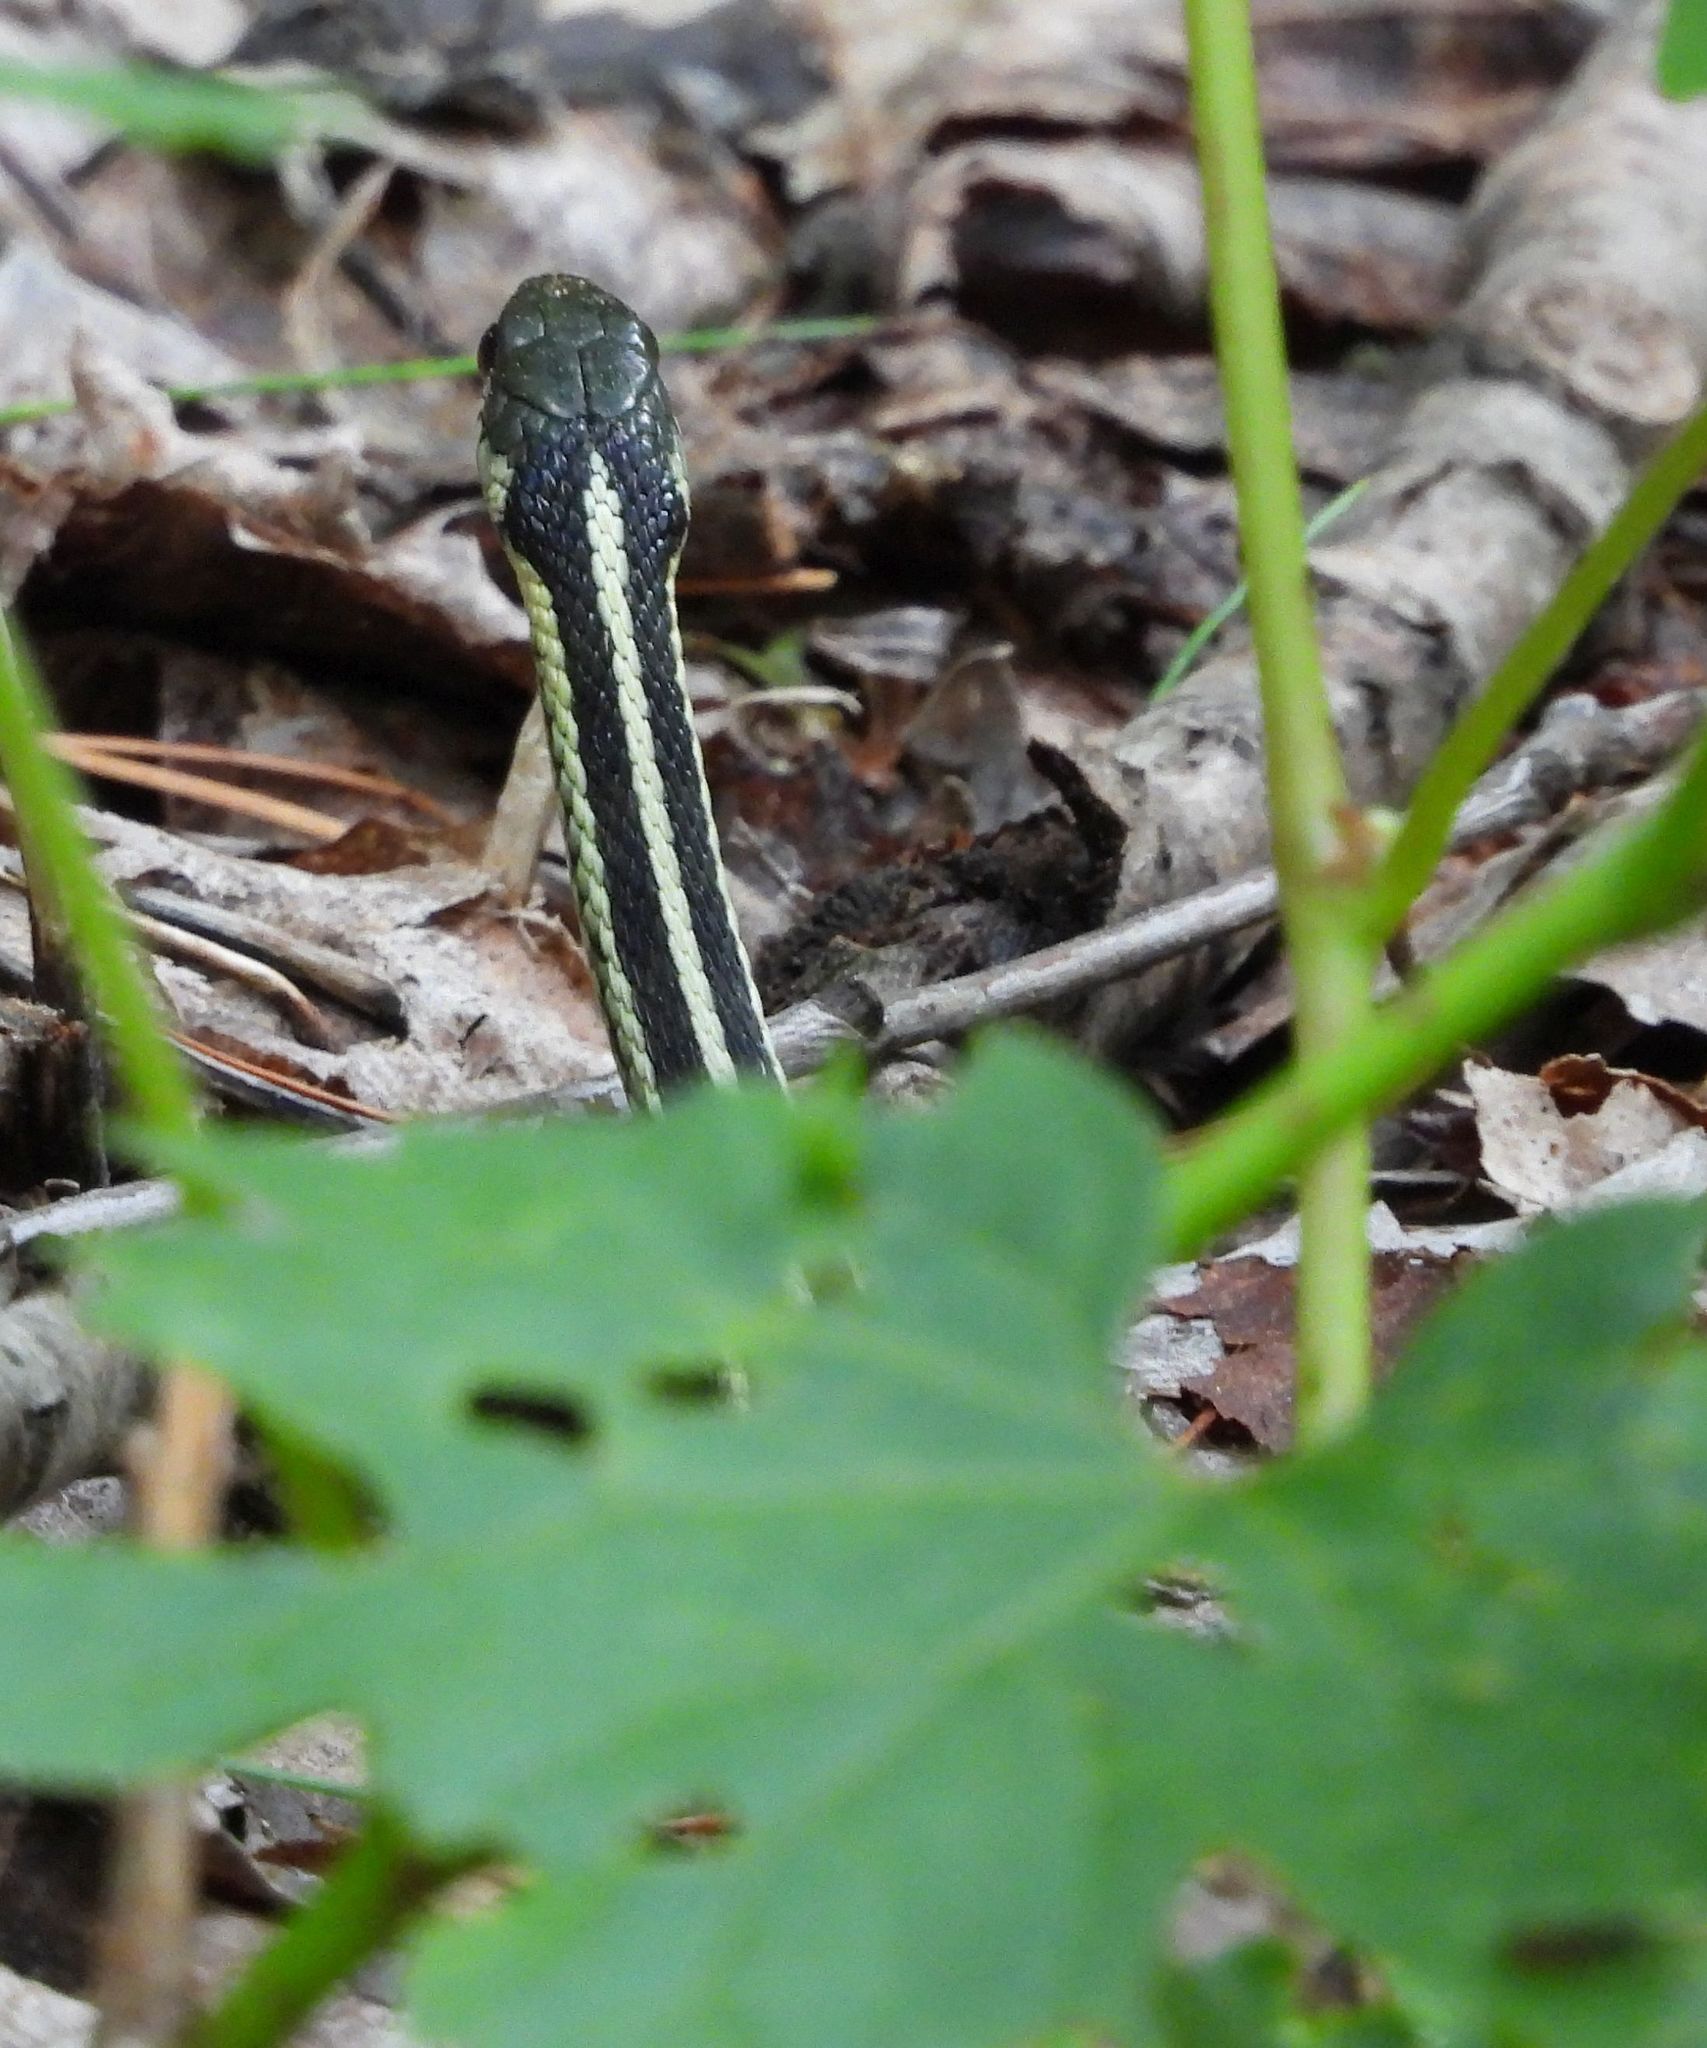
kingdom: Animalia
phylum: Chordata
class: Squamata
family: Colubridae
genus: Thamnophis
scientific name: Thamnophis sirtalis
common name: Common garter snake
